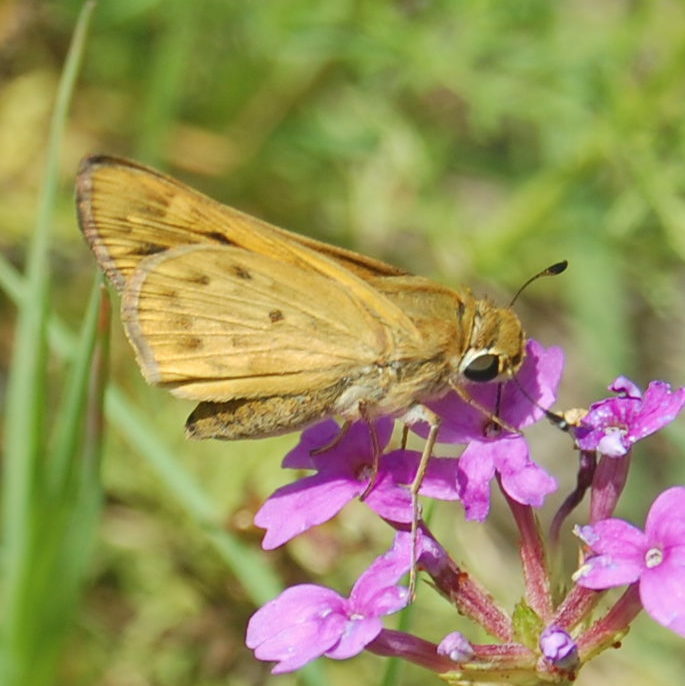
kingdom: Animalia
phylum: Arthropoda
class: Insecta
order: Lepidoptera
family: Hesperiidae
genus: Hylephila
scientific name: Hylephila phyleus
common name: Fiery skipper
